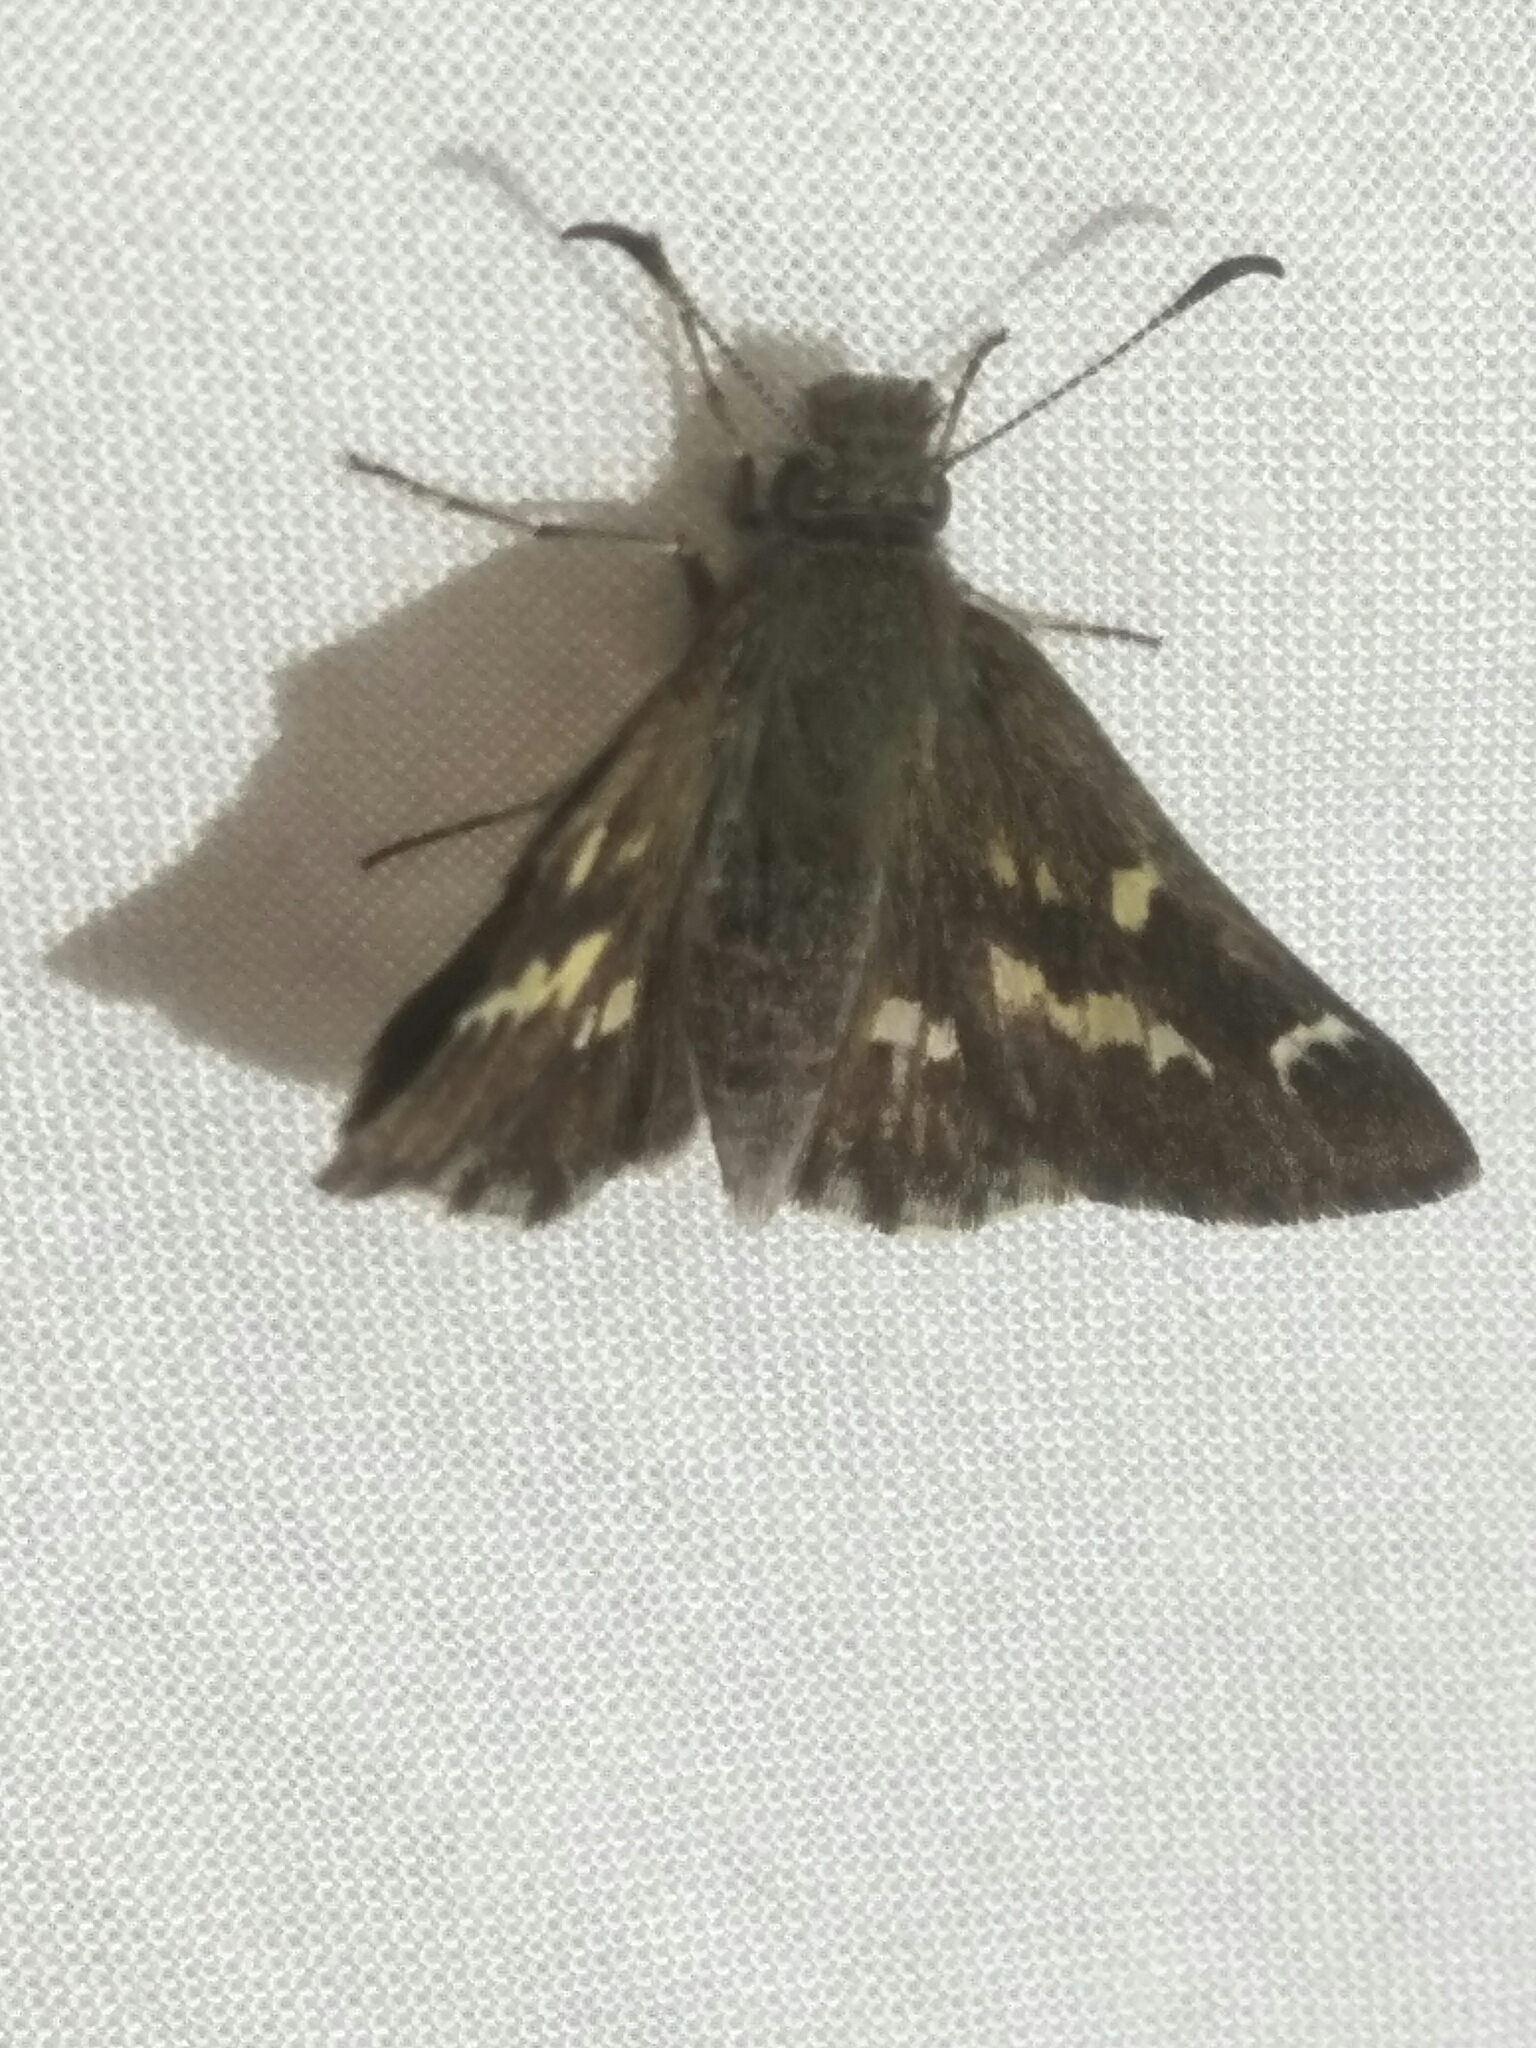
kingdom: Animalia
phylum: Arthropoda
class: Insecta
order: Lepidoptera
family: Hesperiidae
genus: Pasma
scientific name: Pasma tasmanicus
